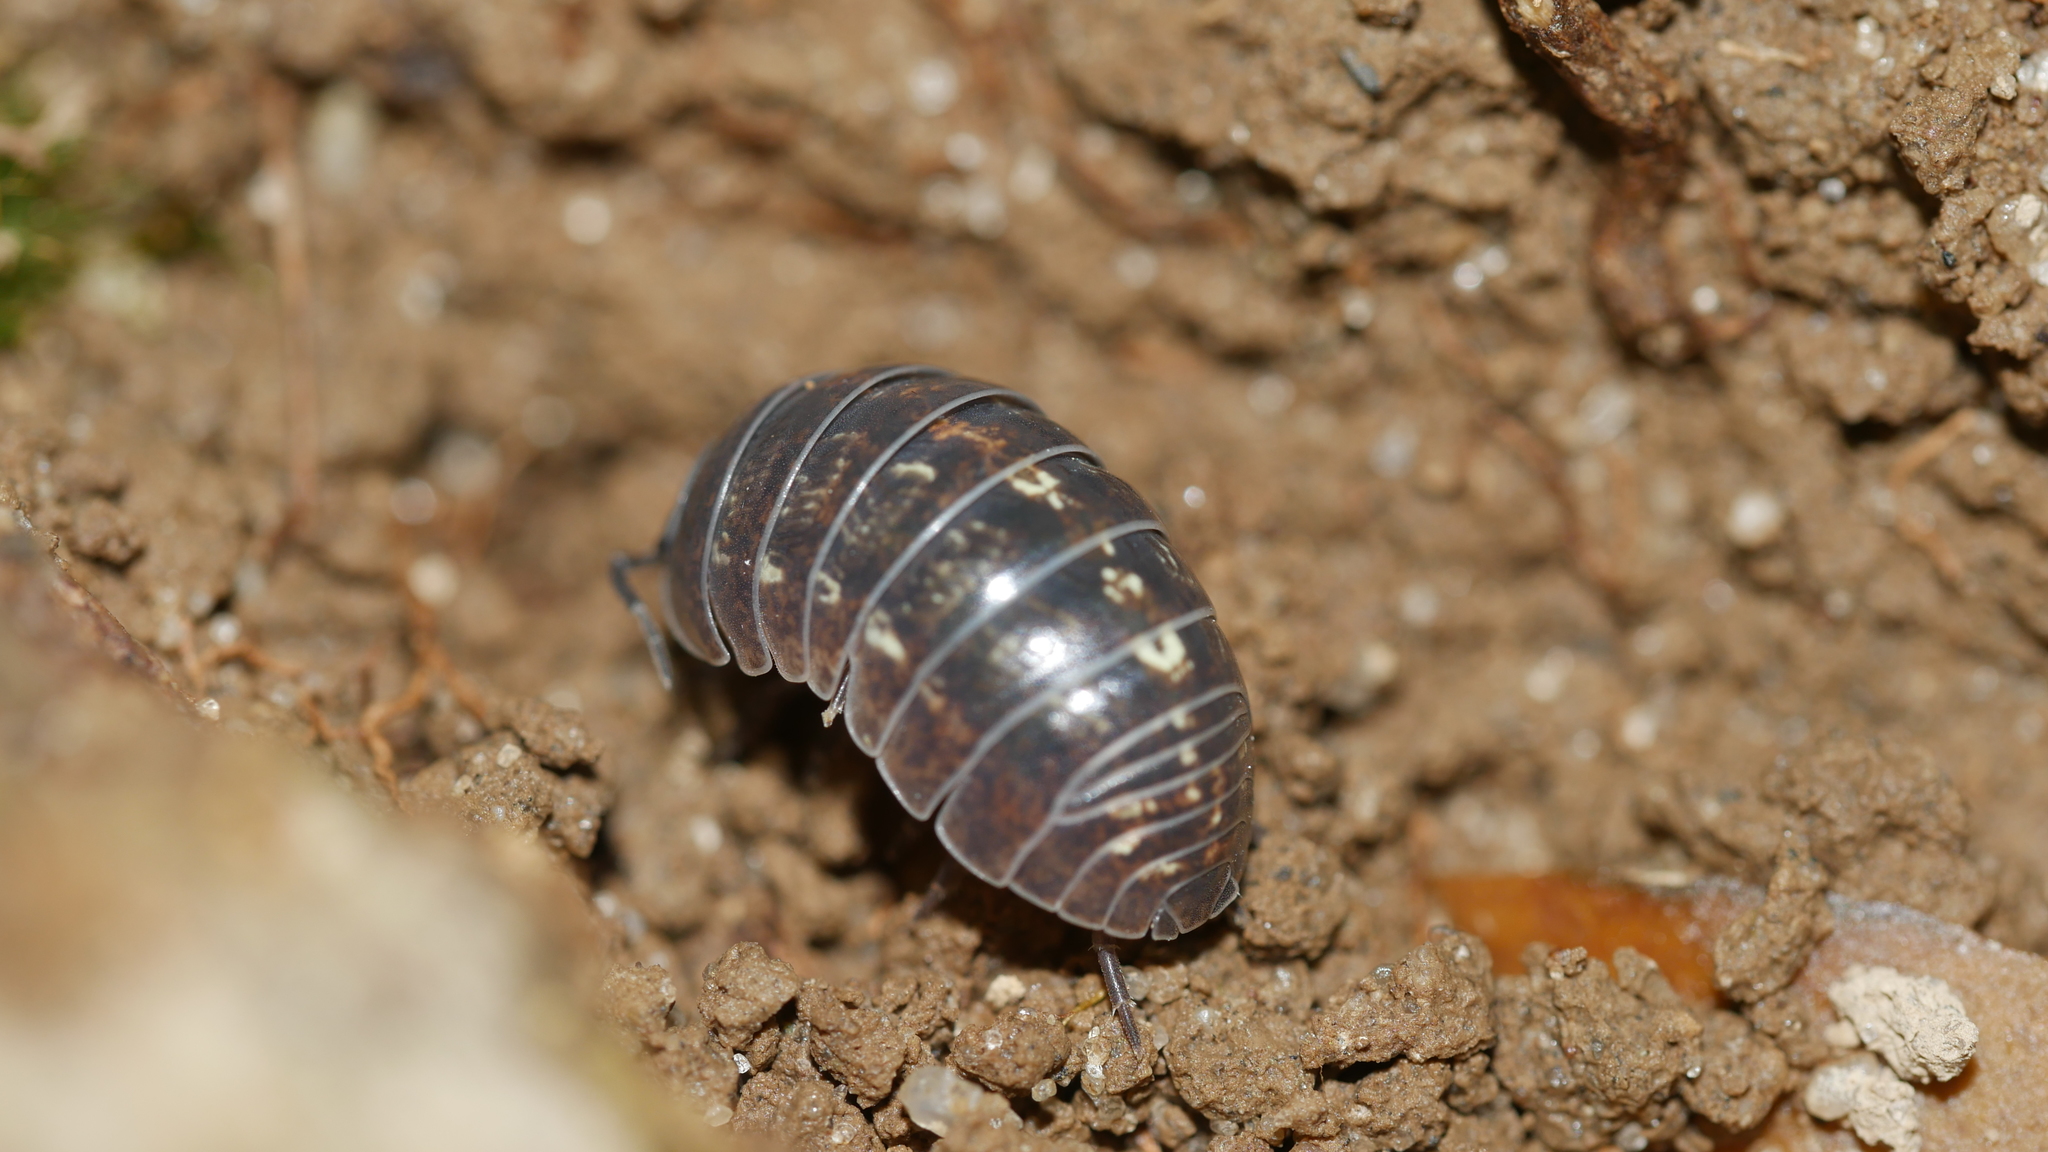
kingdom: Animalia
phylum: Arthropoda
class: Malacostraca
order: Isopoda
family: Armadillidiidae
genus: Armadillidium
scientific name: Armadillidium vulgare
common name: Common pill woodlouse
